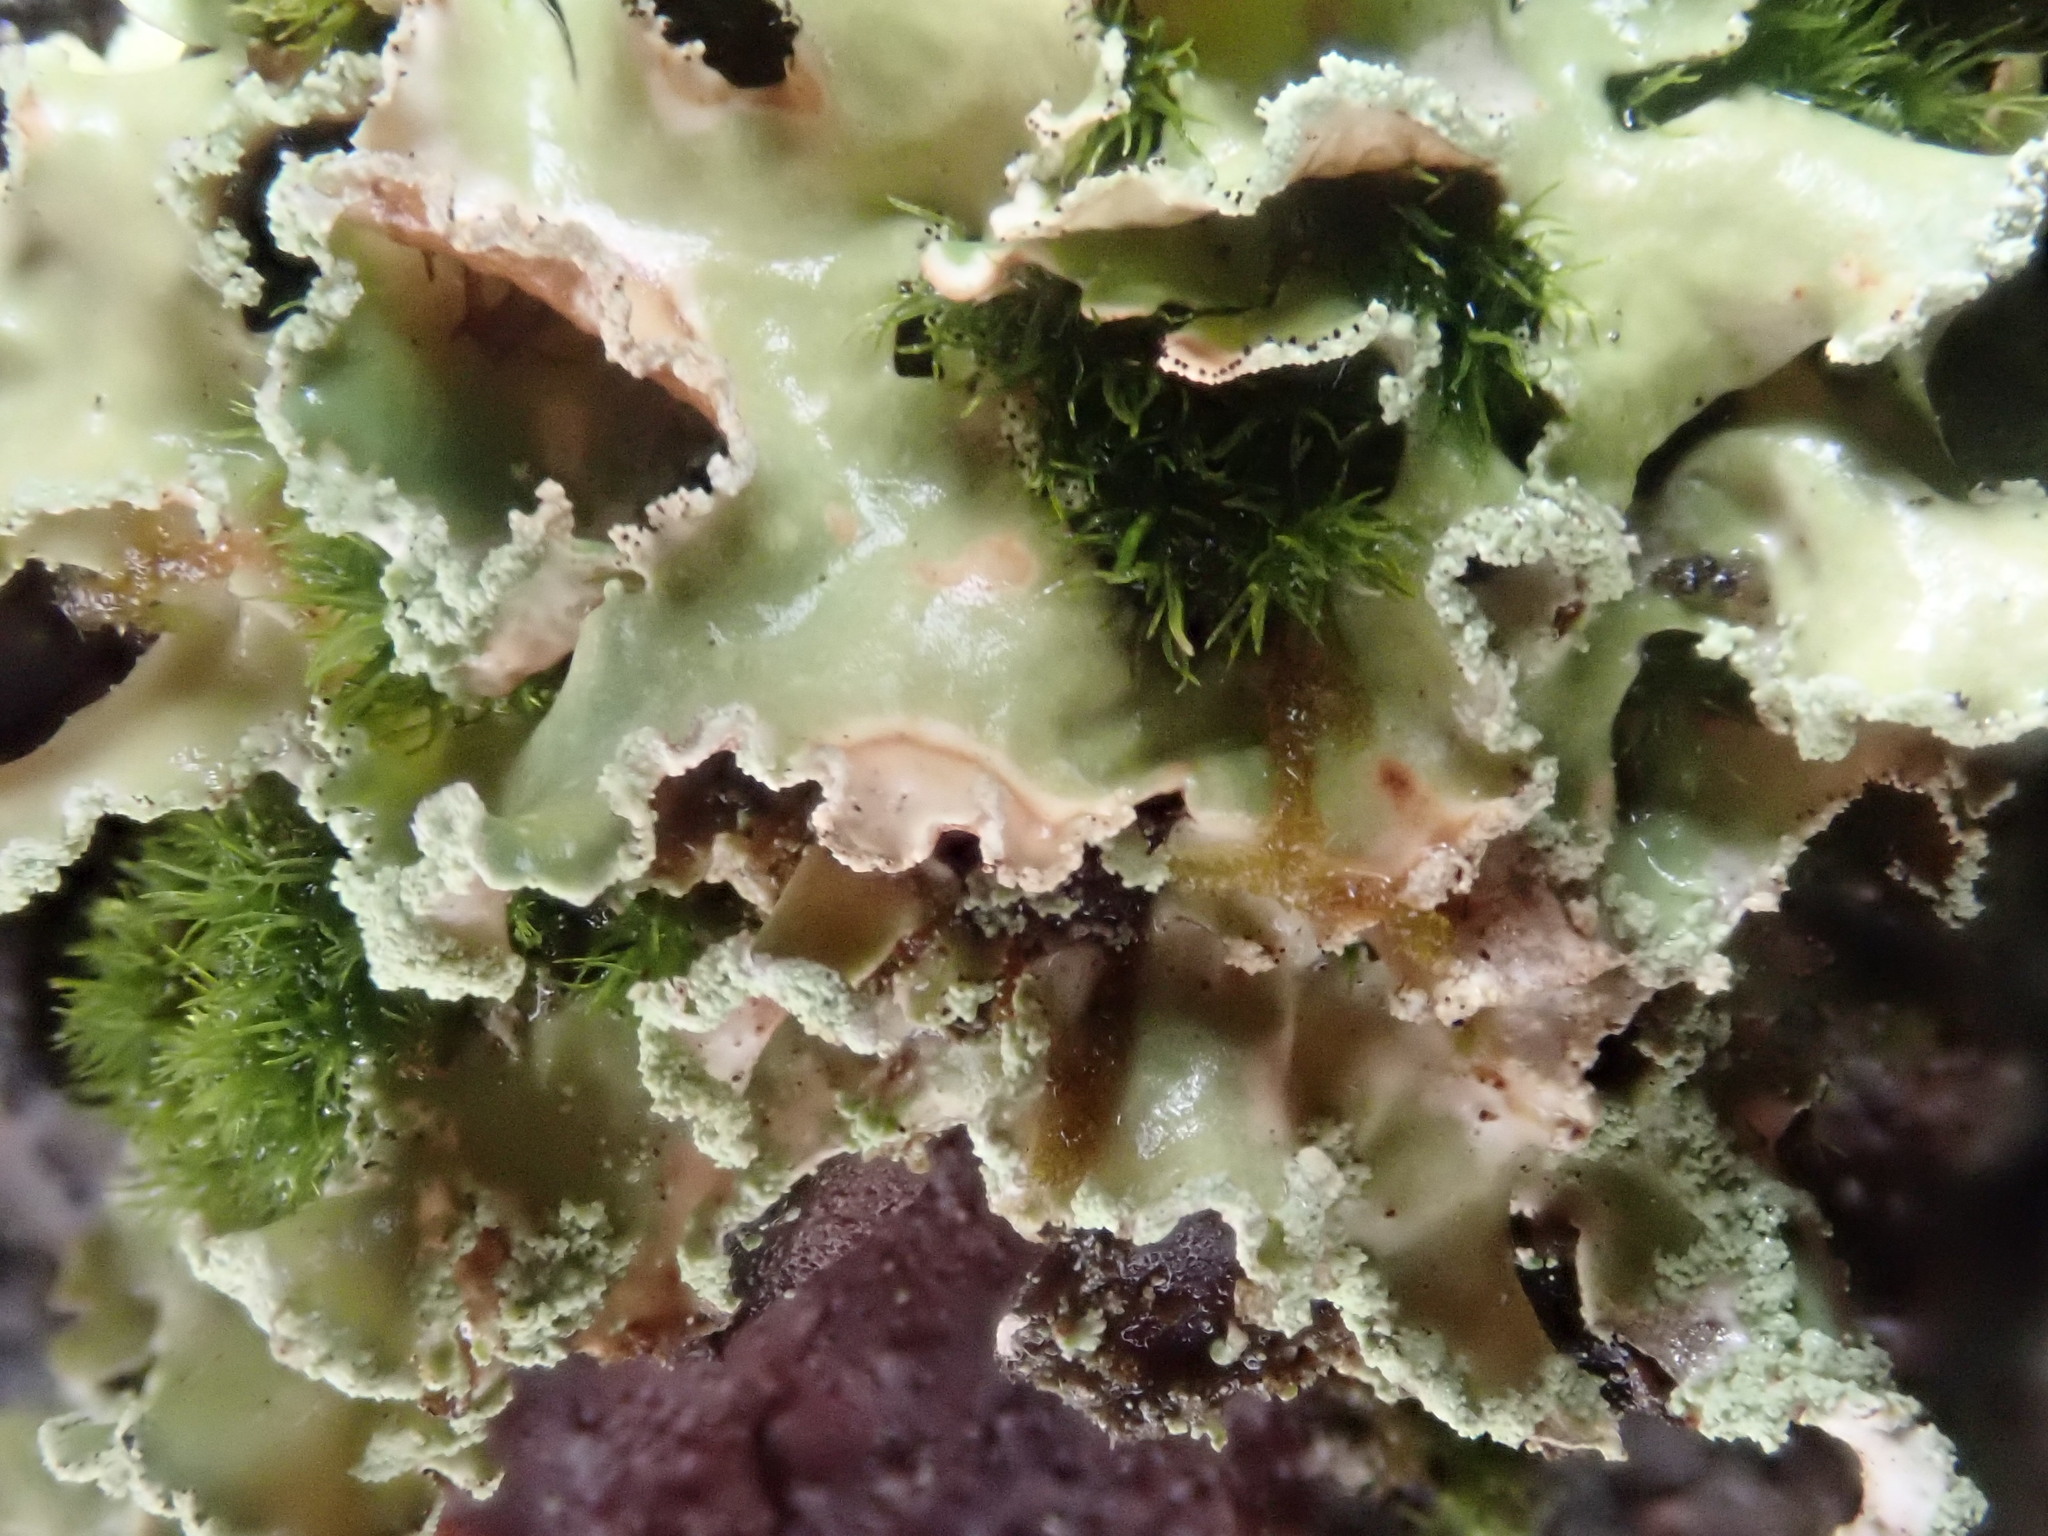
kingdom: Fungi
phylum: Ascomycota
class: Lecanoromycetes
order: Lecanorales
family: Parmeliaceae
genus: Usnocetraria
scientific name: Usnocetraria oakesiana
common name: Yellow ribbon lichen
